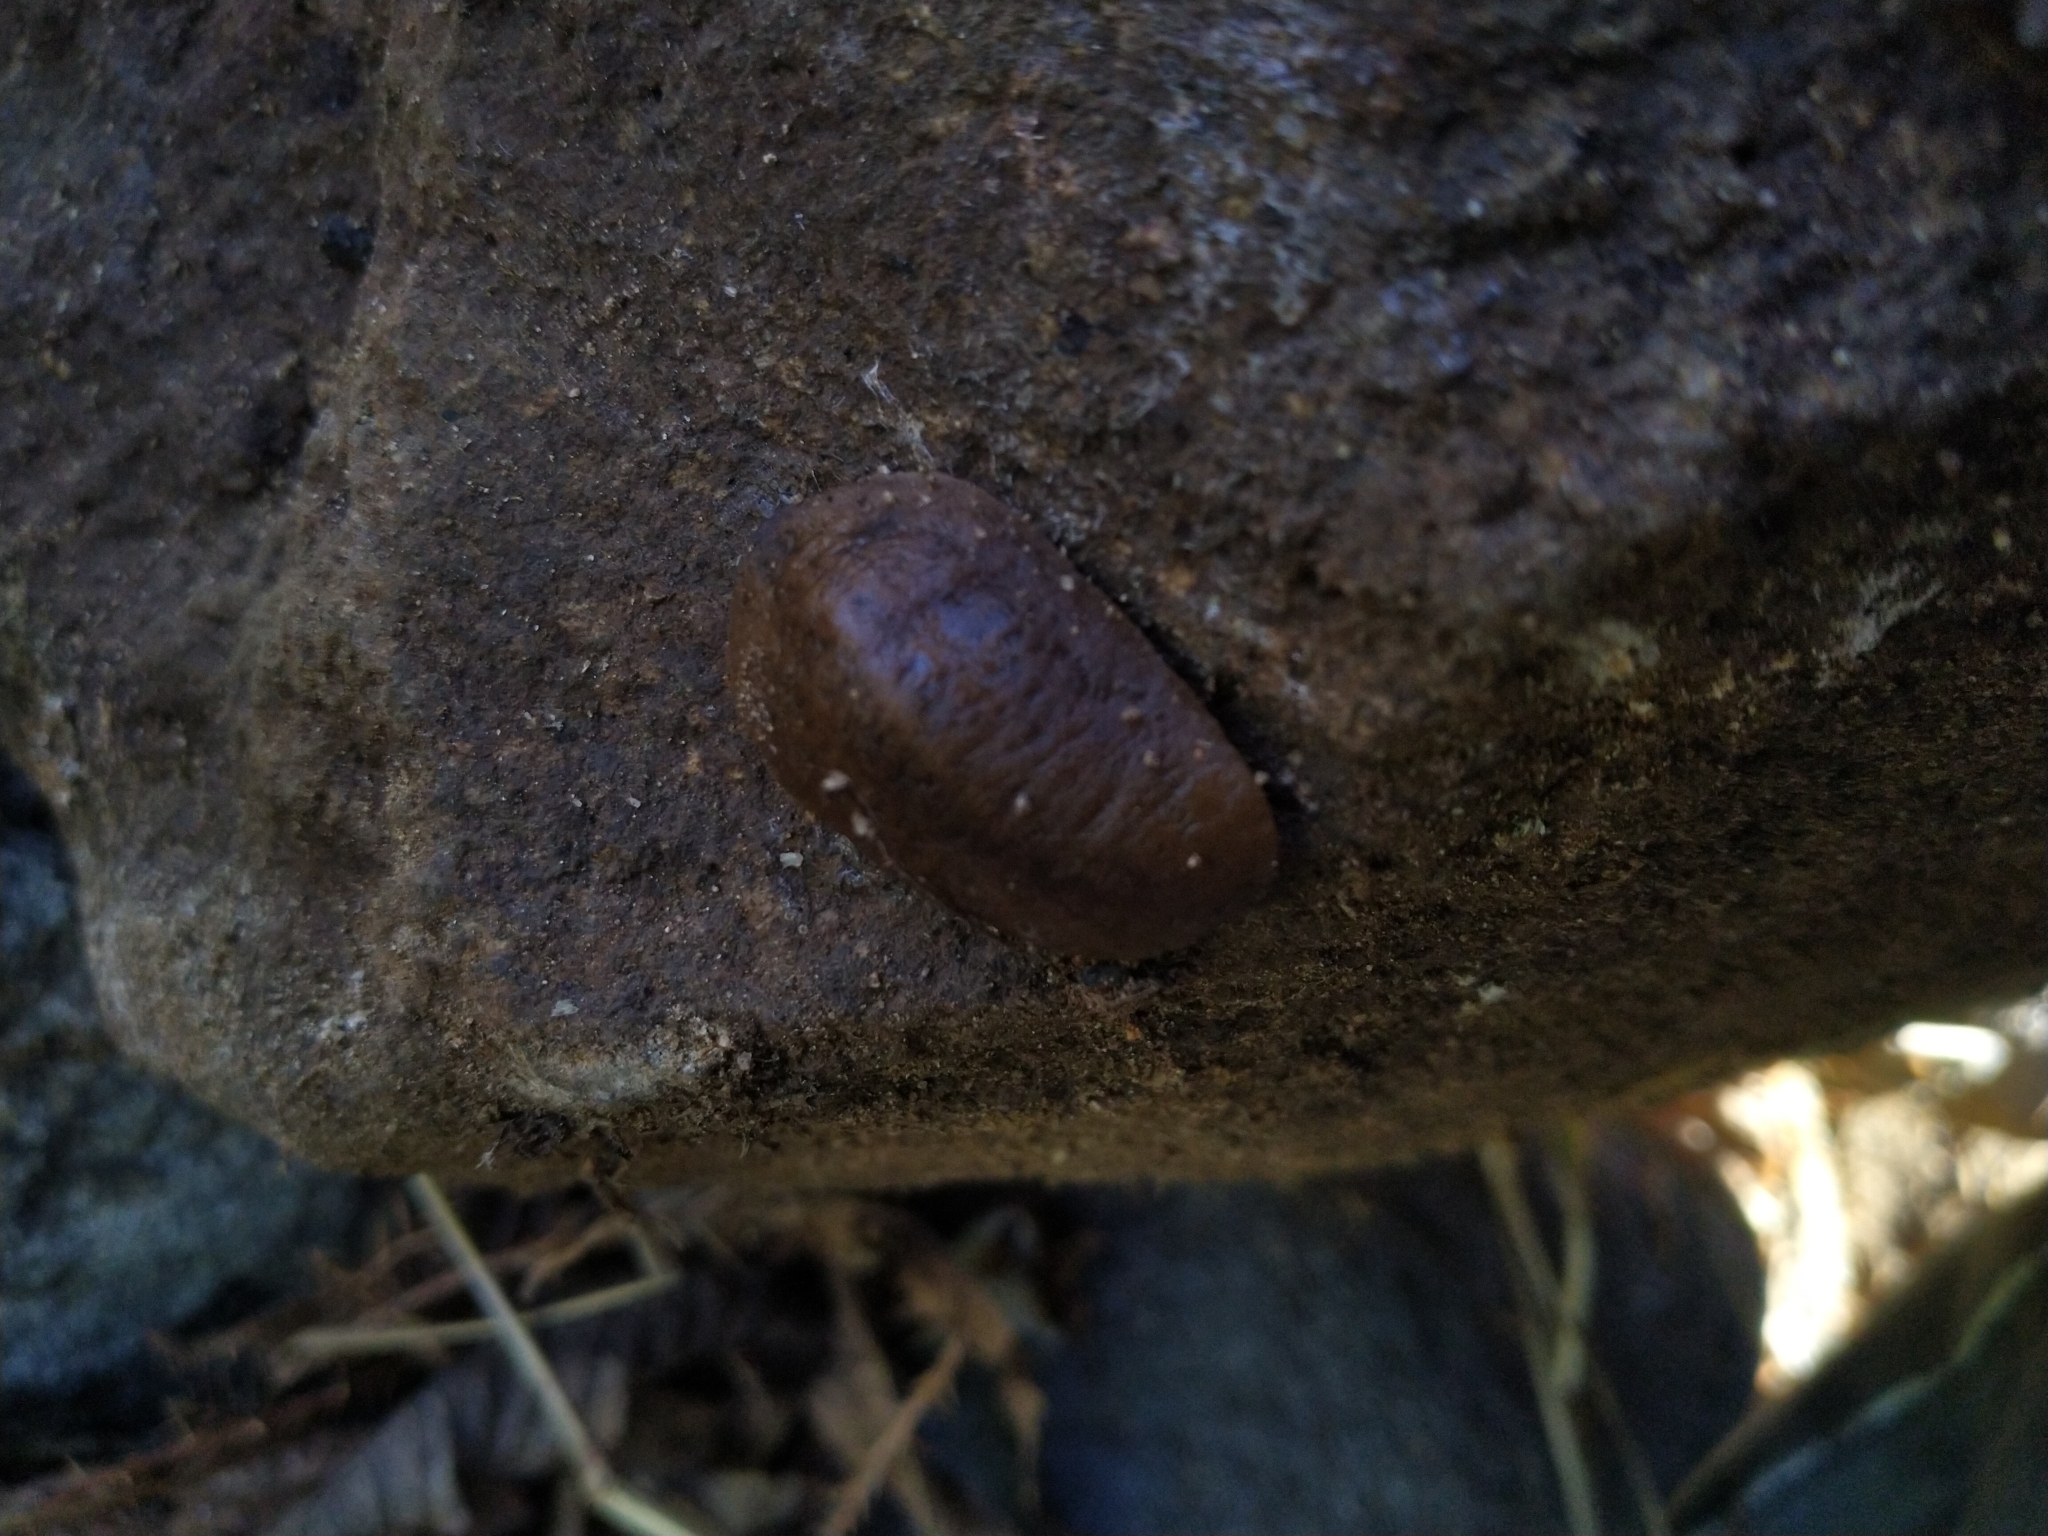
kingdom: Animalia
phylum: Mollusca
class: Gastropoda
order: Systellommatophora
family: Veronicellidae
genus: Sarasinula
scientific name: Sarasinula plebeia
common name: Caribbean leatherleaf
